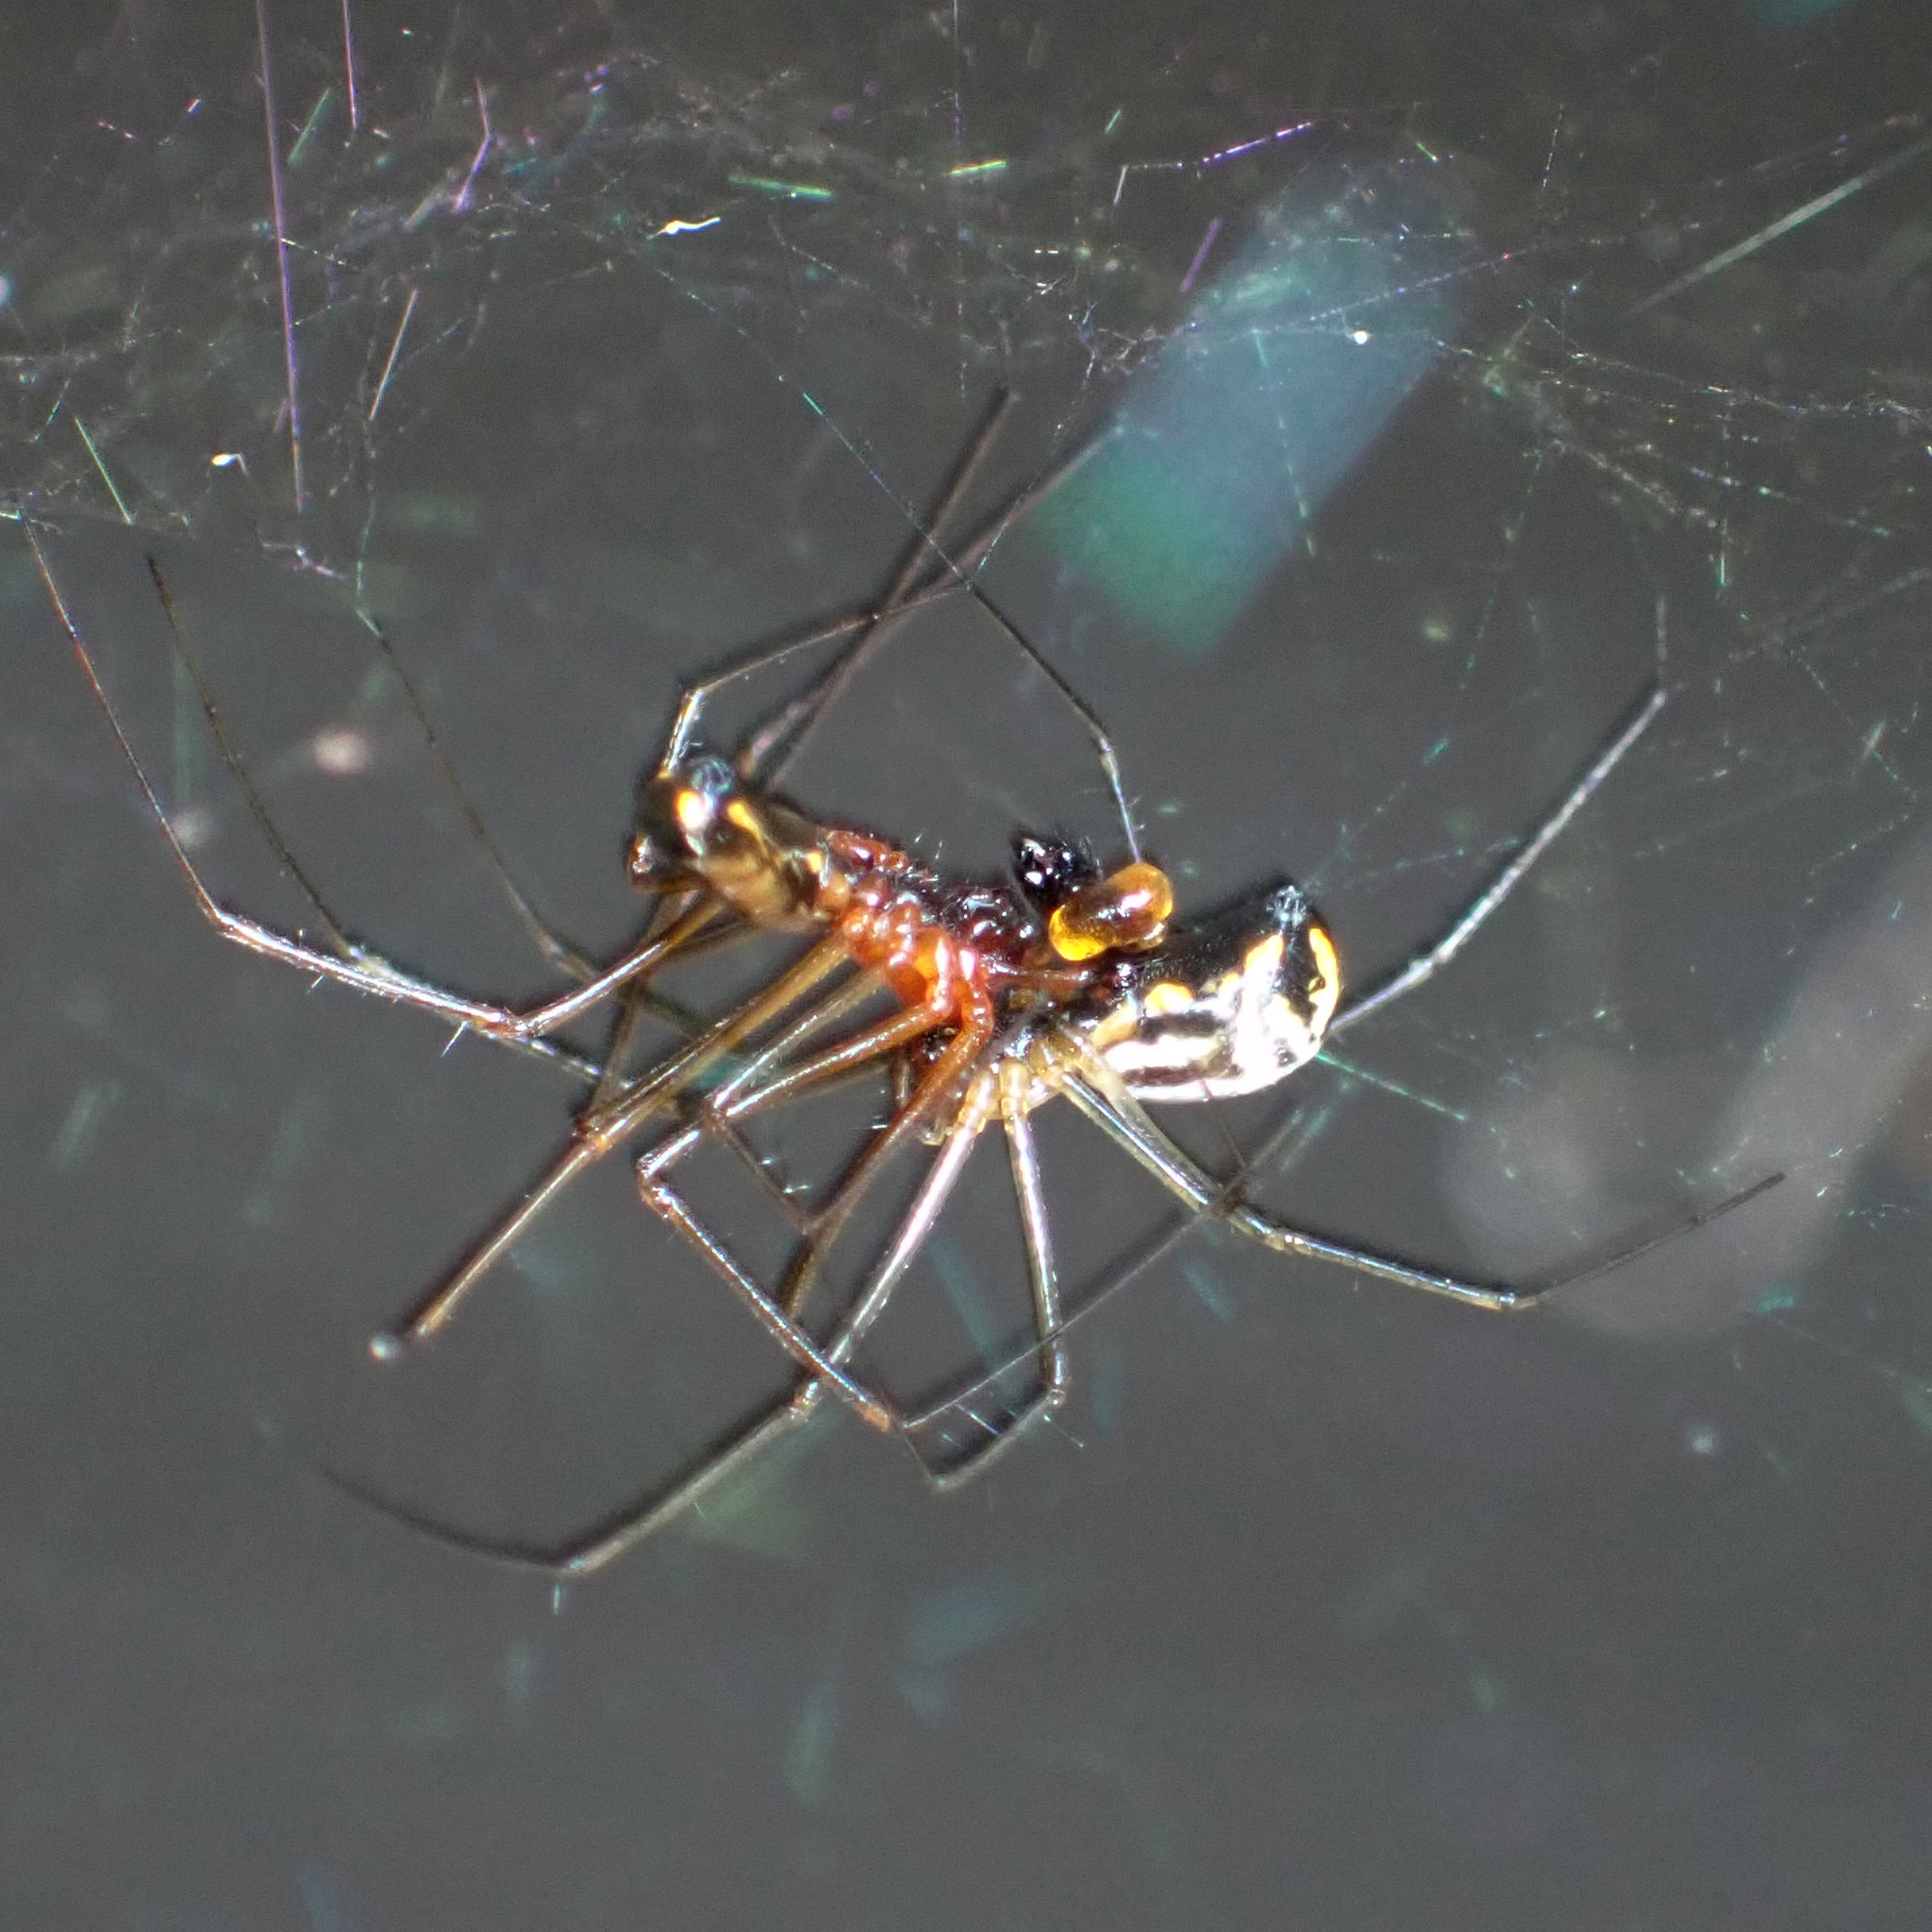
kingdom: Animalia
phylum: Arthropoda
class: Arachnida
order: Araneae
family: Linyphiidae
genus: Neriene
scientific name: Neriene radiata
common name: Filmy dome spider
